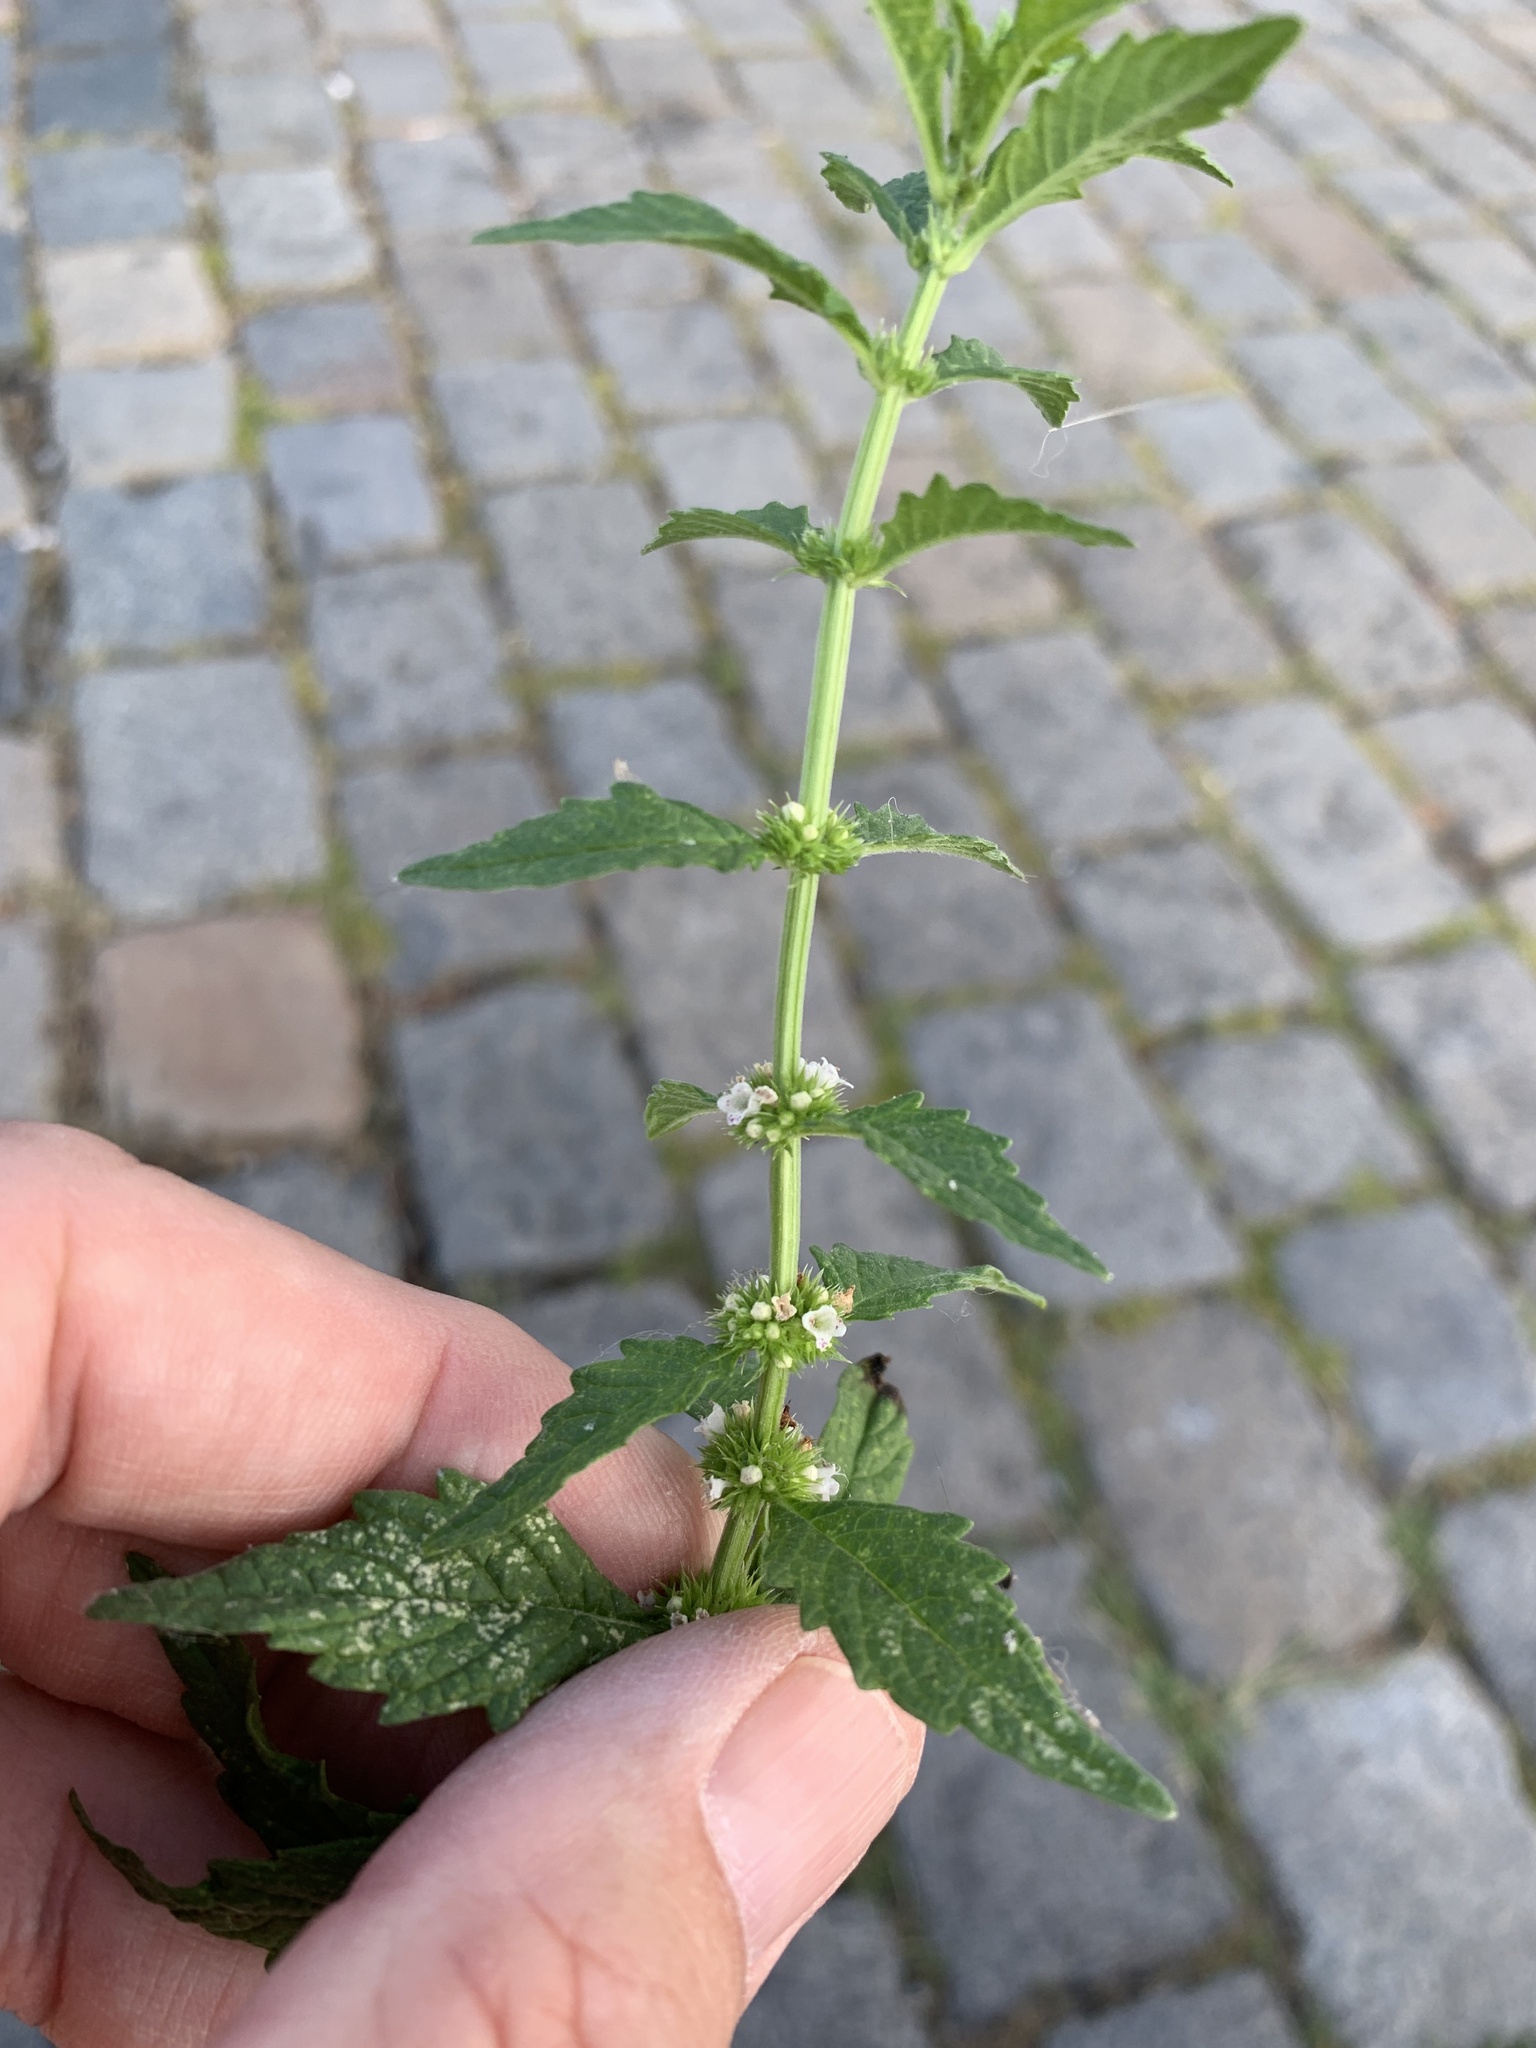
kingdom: Plantae
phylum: Tracheophyta
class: Magnoliopsida
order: Lamiales
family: Lamiaceae
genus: Lycopus
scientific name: Lycopus europaeus
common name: European bugleweed
